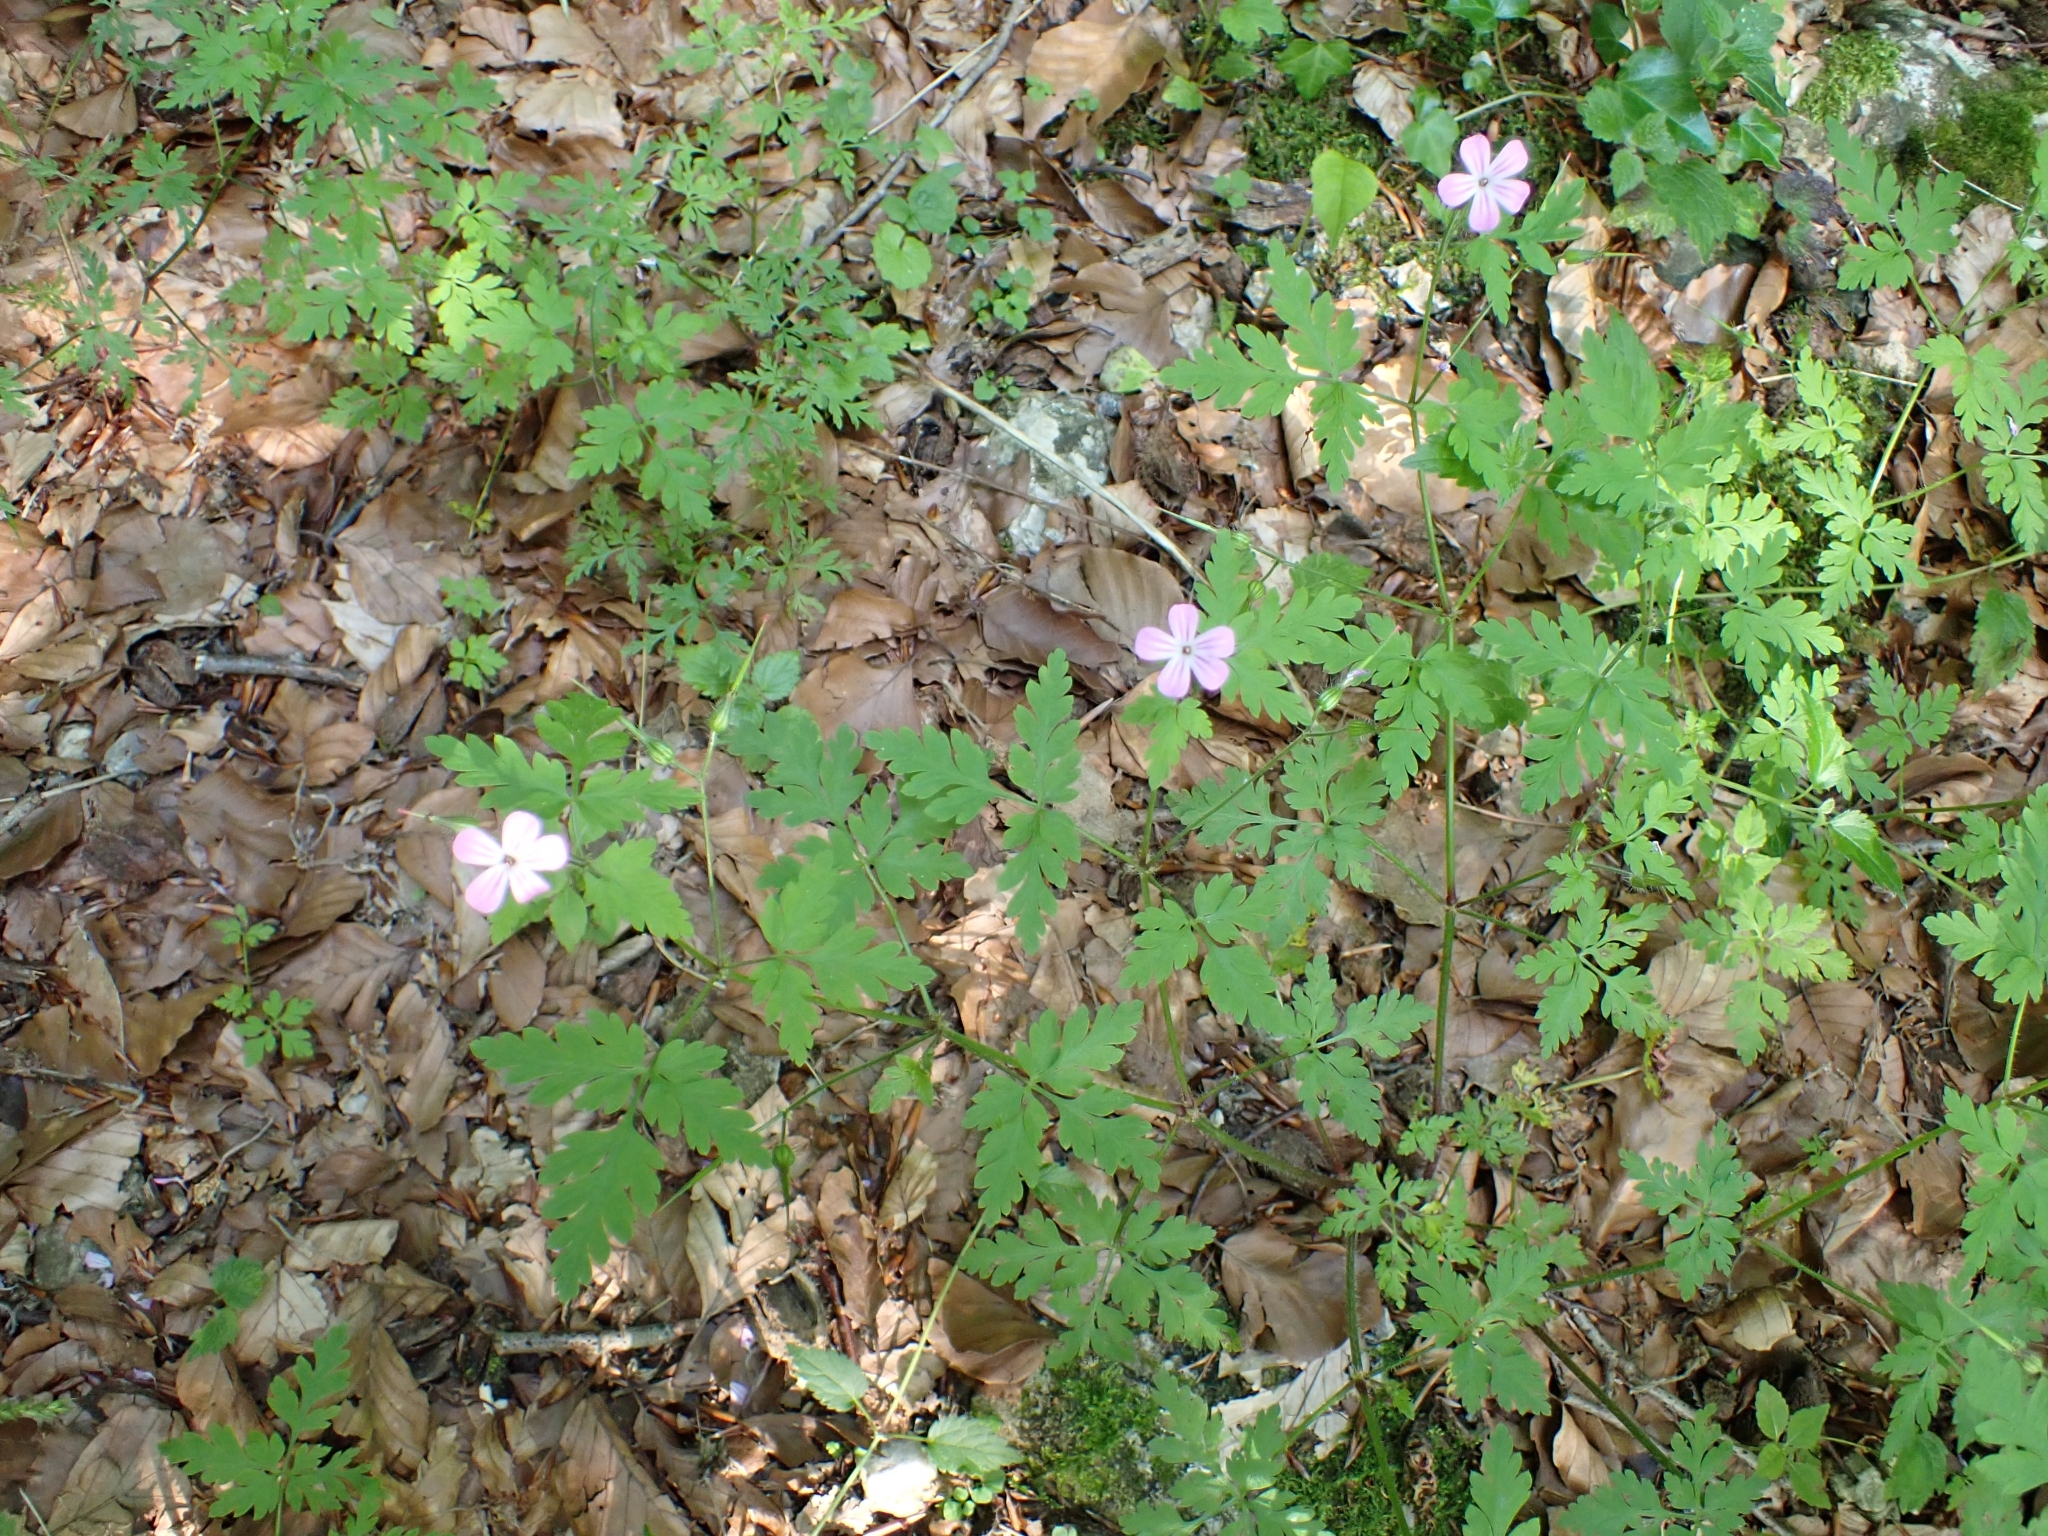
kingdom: Plantae
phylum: Tracheophyta
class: Magnoliopsida
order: Geraniales
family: Geraniaceae
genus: Geranium
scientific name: Geranium robertianum
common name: Herb-robert
